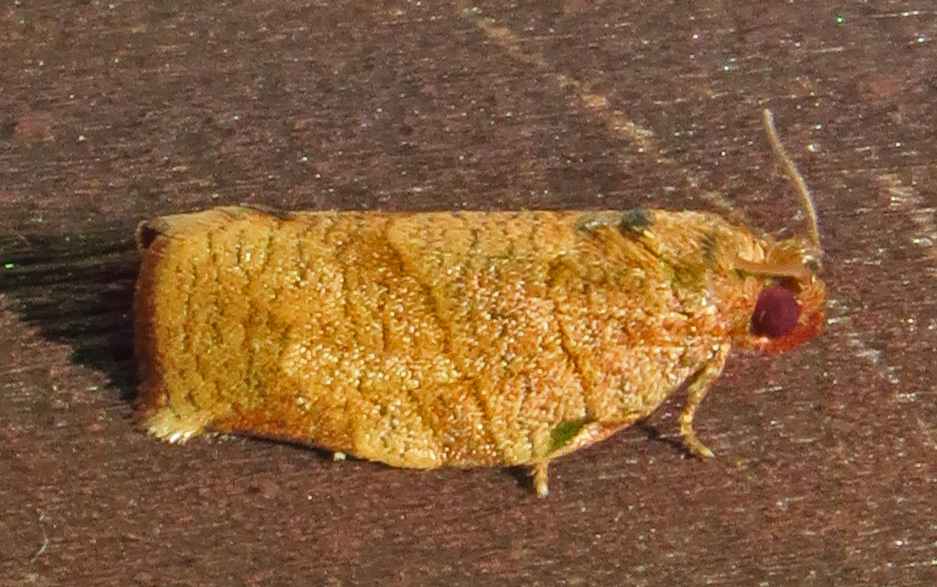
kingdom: Animalia
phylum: Arthropoda
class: Insecta
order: Lepidoptera
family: Tortricidae
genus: Choristoneura
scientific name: Choristoneura rosaceana
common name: Oblique-banded leafroller moth
